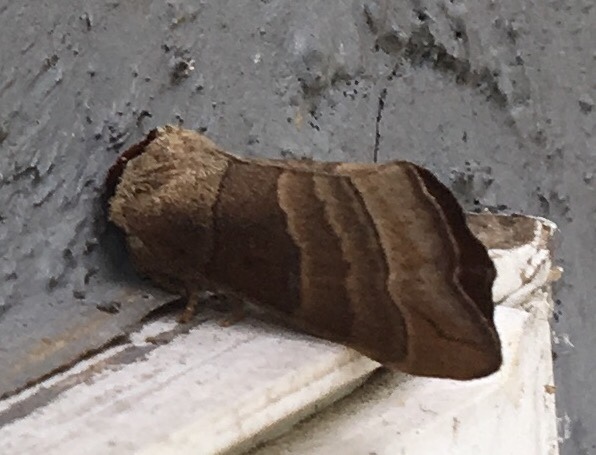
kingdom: Animalia
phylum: Arthropoda
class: Insecta
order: Lepidoptera
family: Notodontidae
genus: Datana
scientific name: Datana integerrima
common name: Walnut caterpillar
